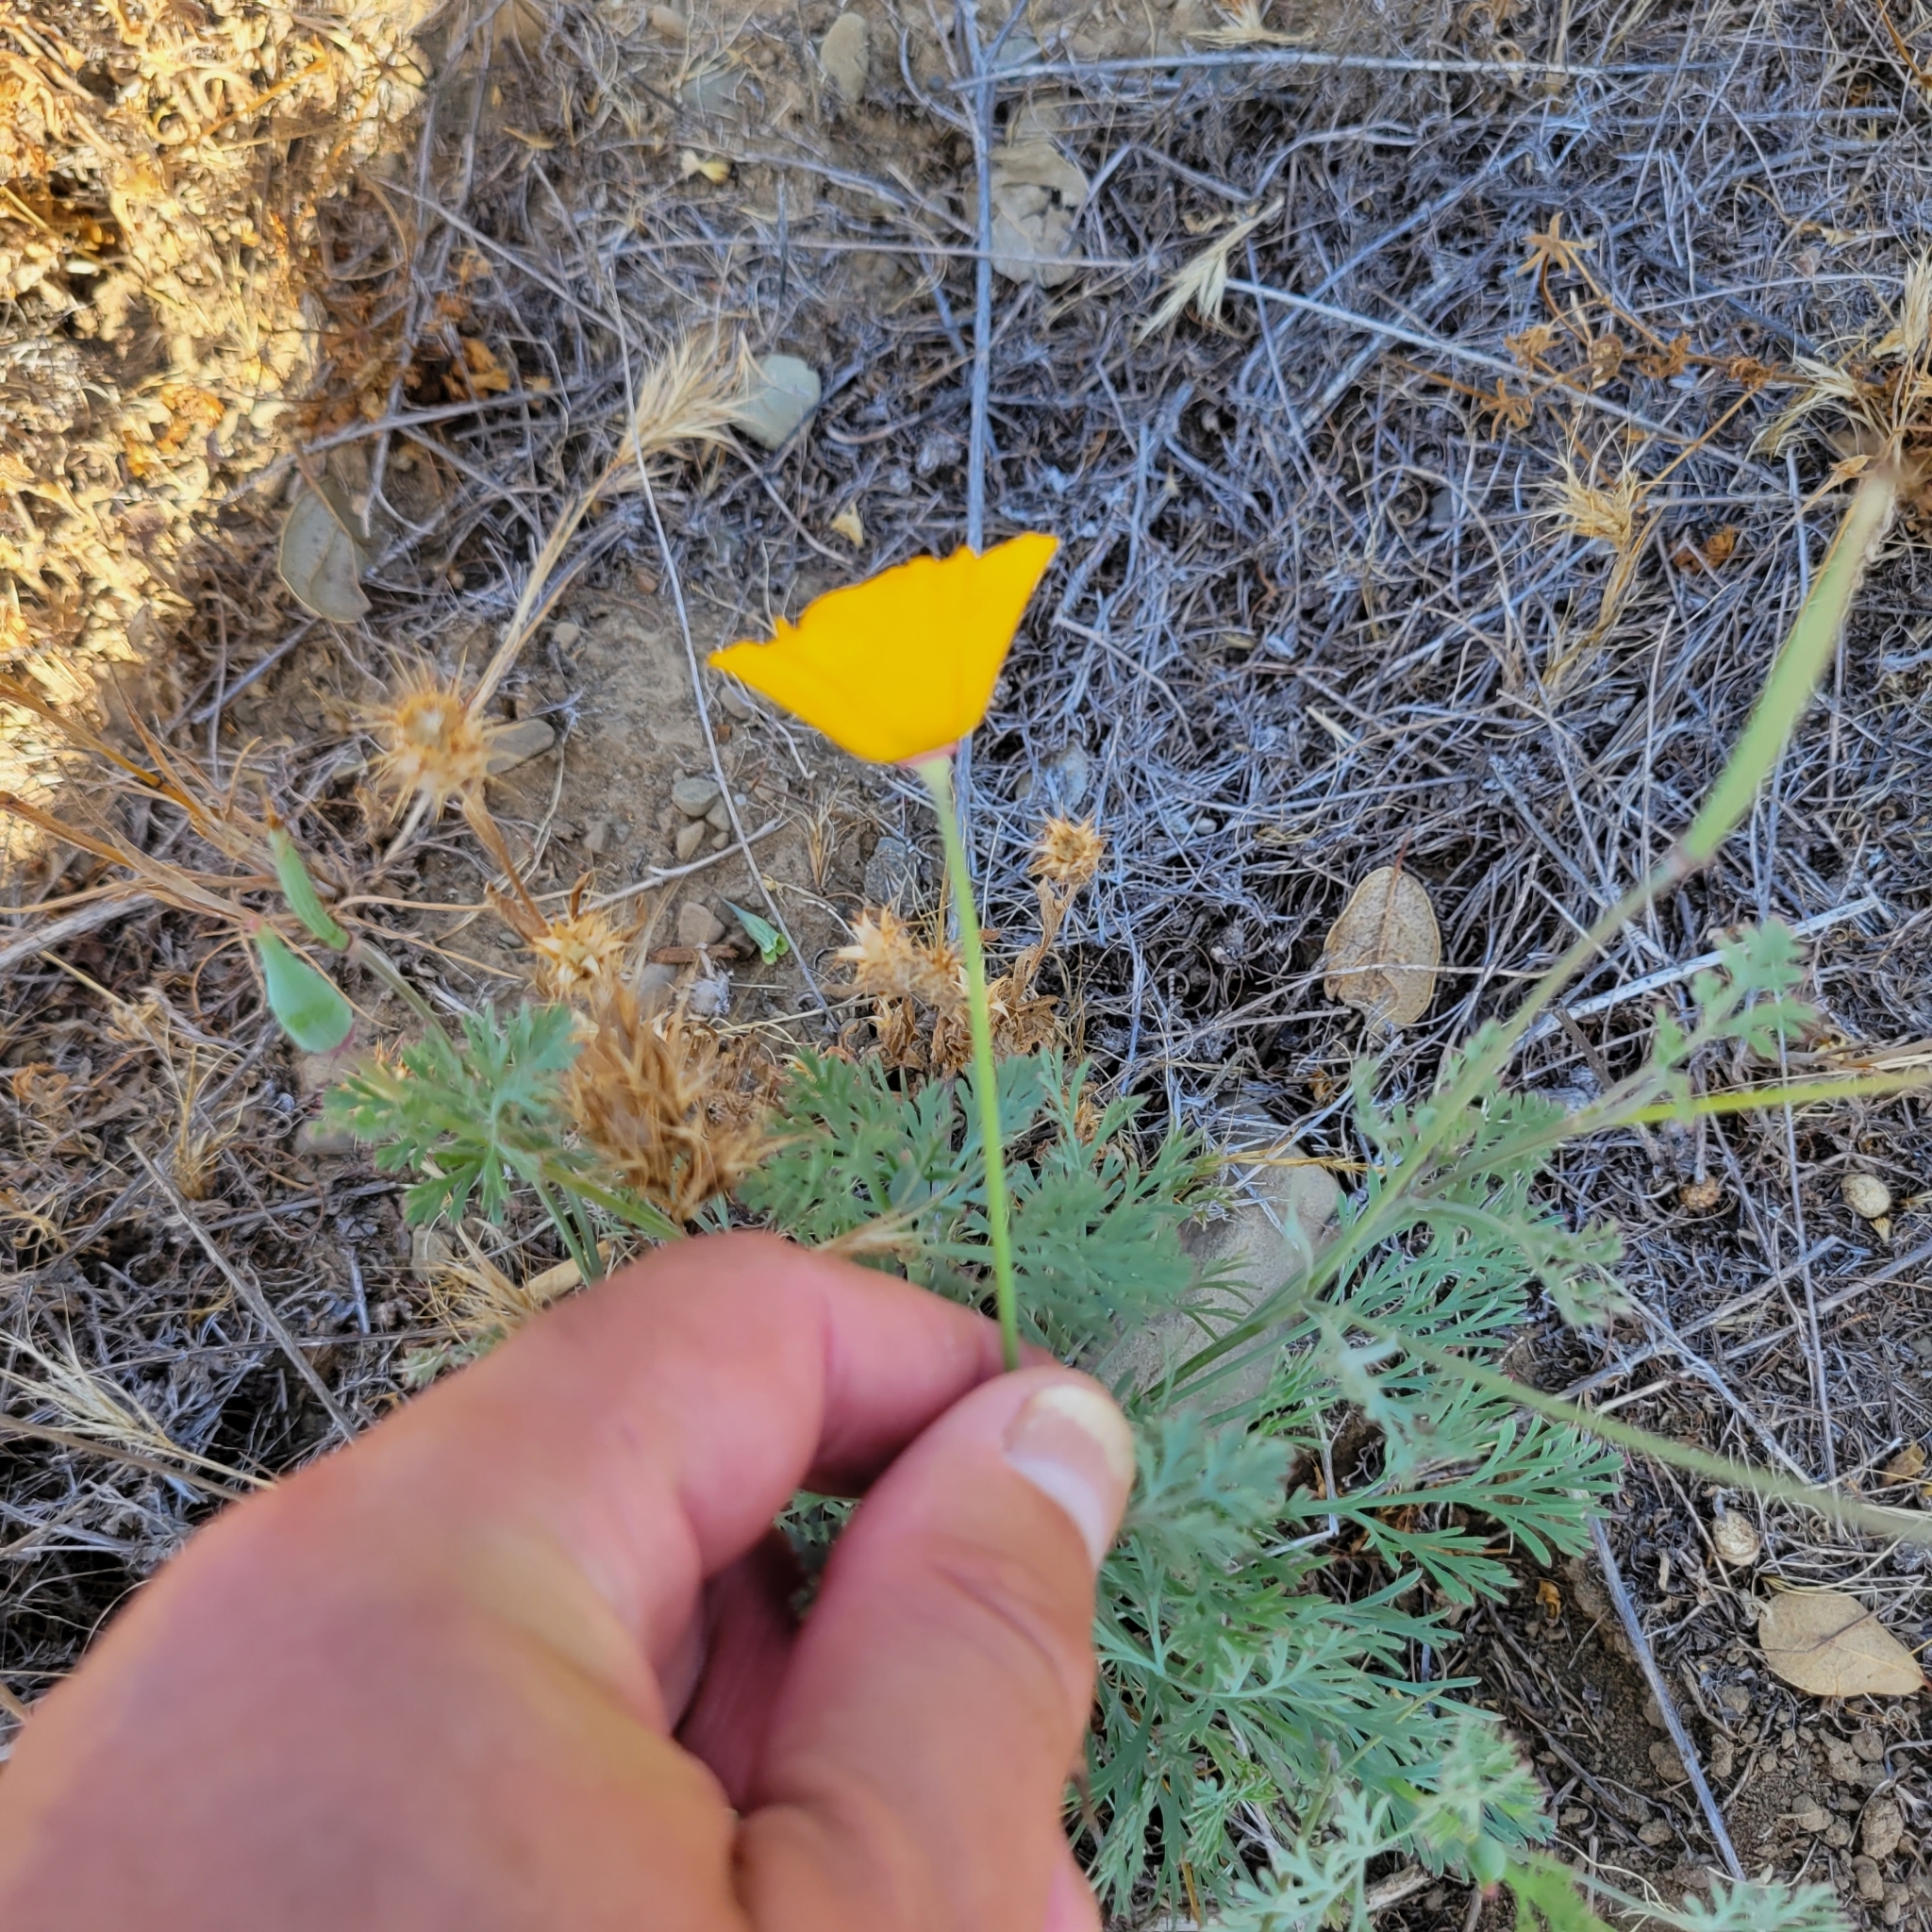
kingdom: Plantae
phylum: Tracheophyta
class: Magnoliopsida
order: Ranunculales
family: Papaveraceae
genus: Eschscholzia
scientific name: Eschscholzia californica
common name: California poppy
